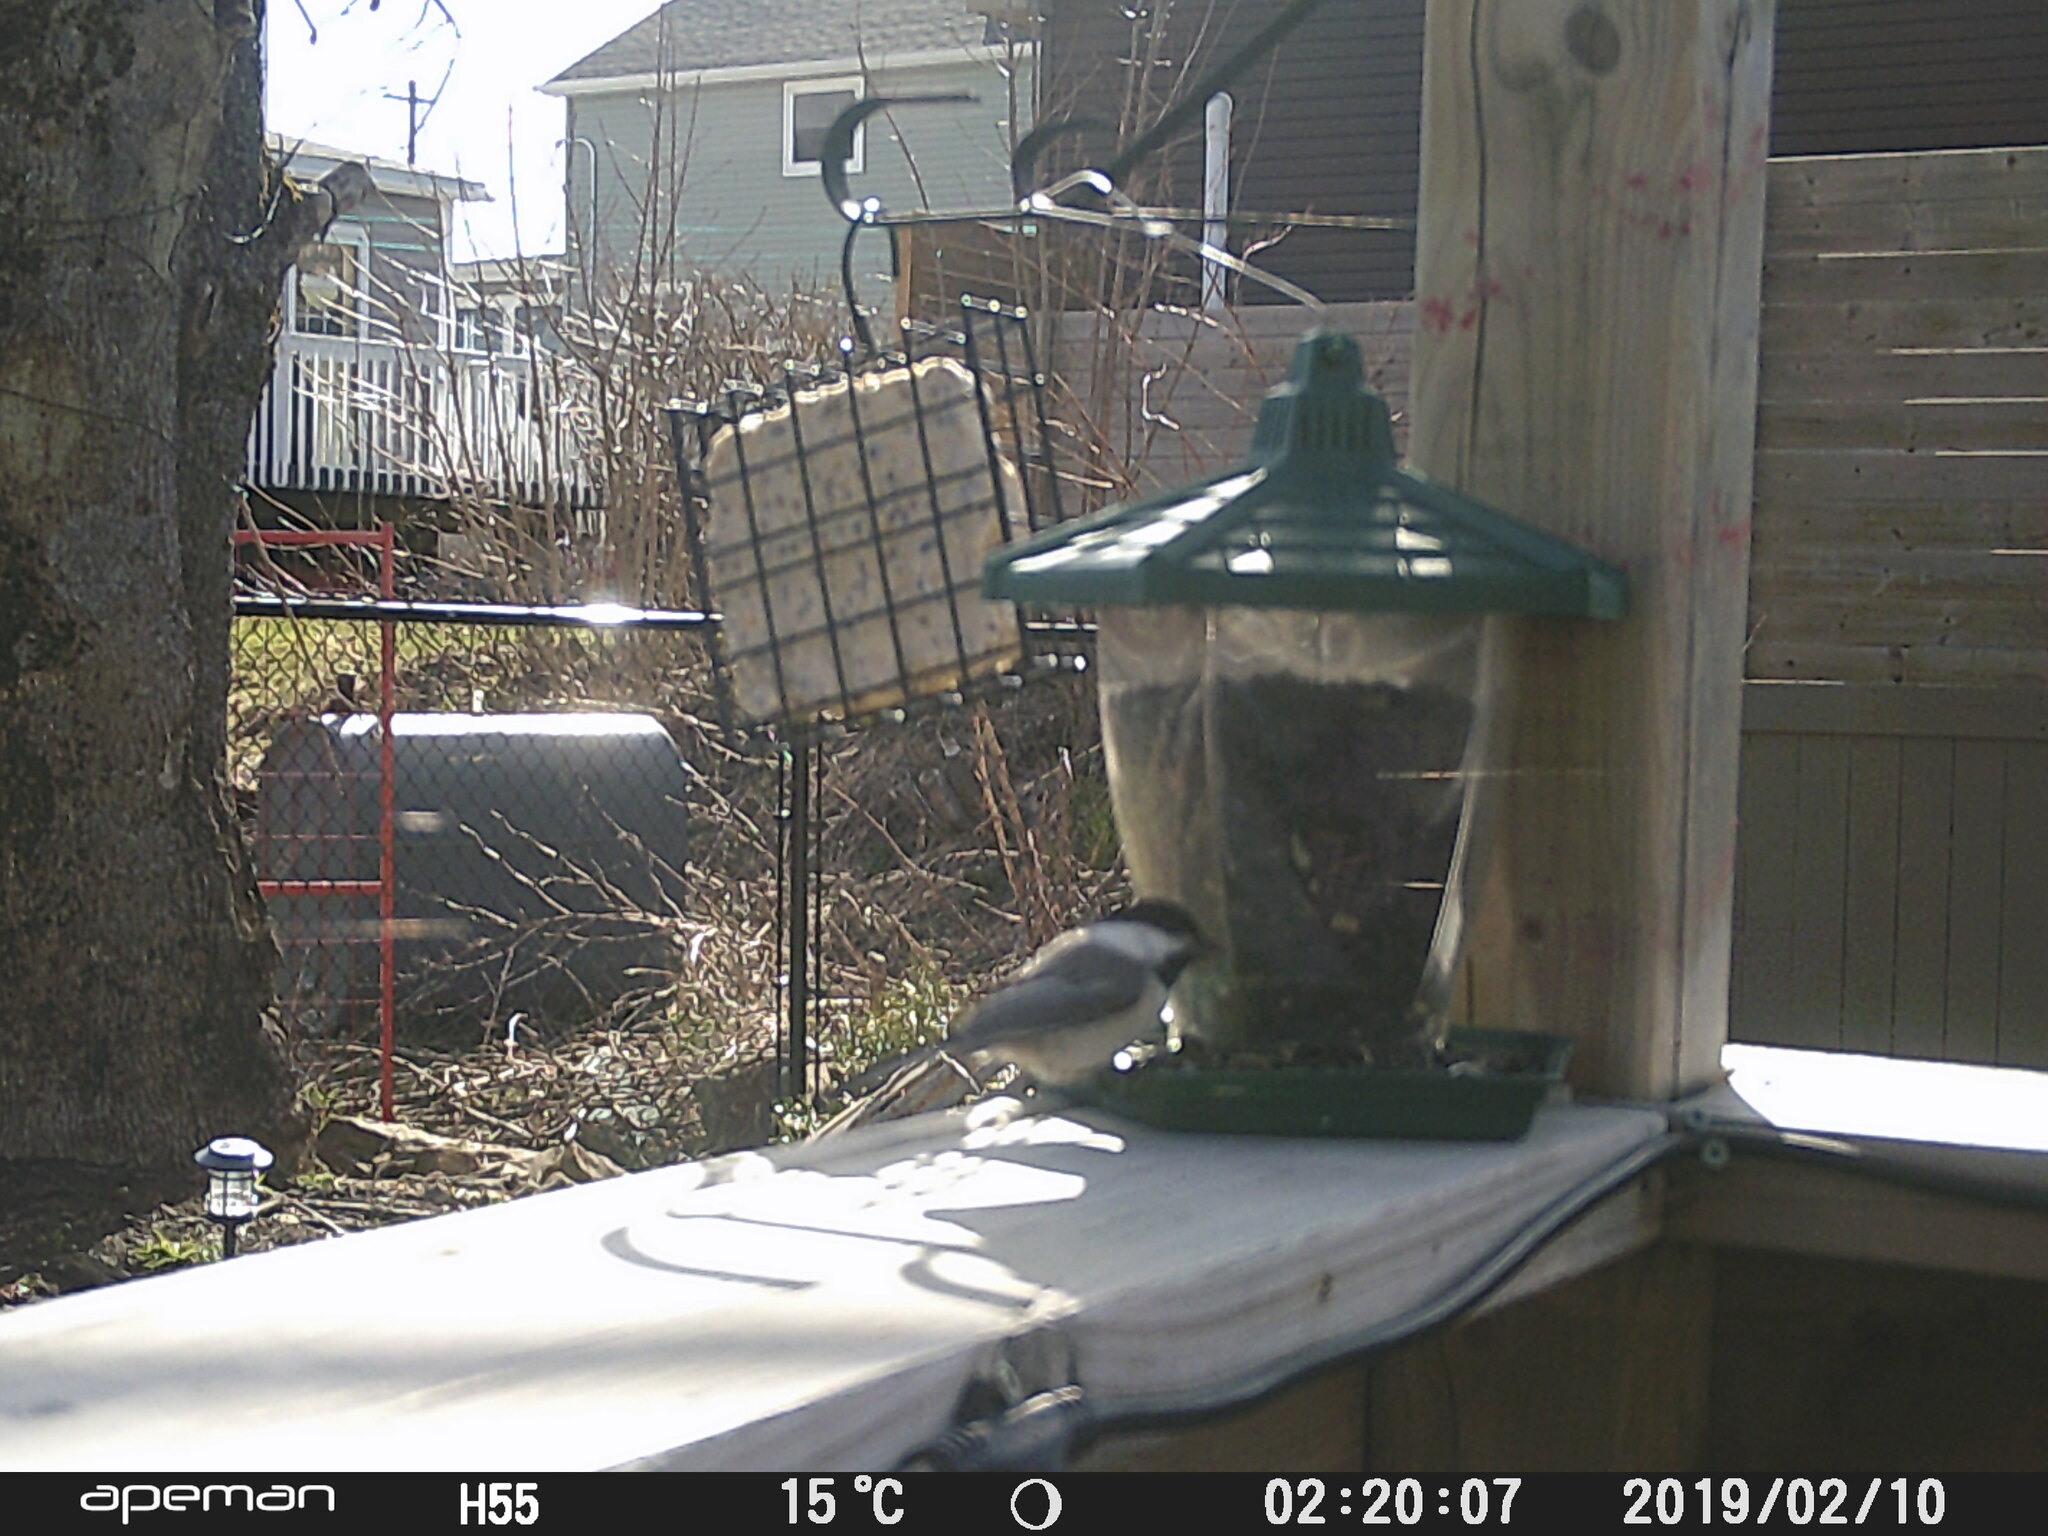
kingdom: Animalia
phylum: Chordata
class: Aves
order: Passeriformes
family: Paridae
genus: Poecile
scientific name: Poecile atricapillus
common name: Black-capped chickadee
